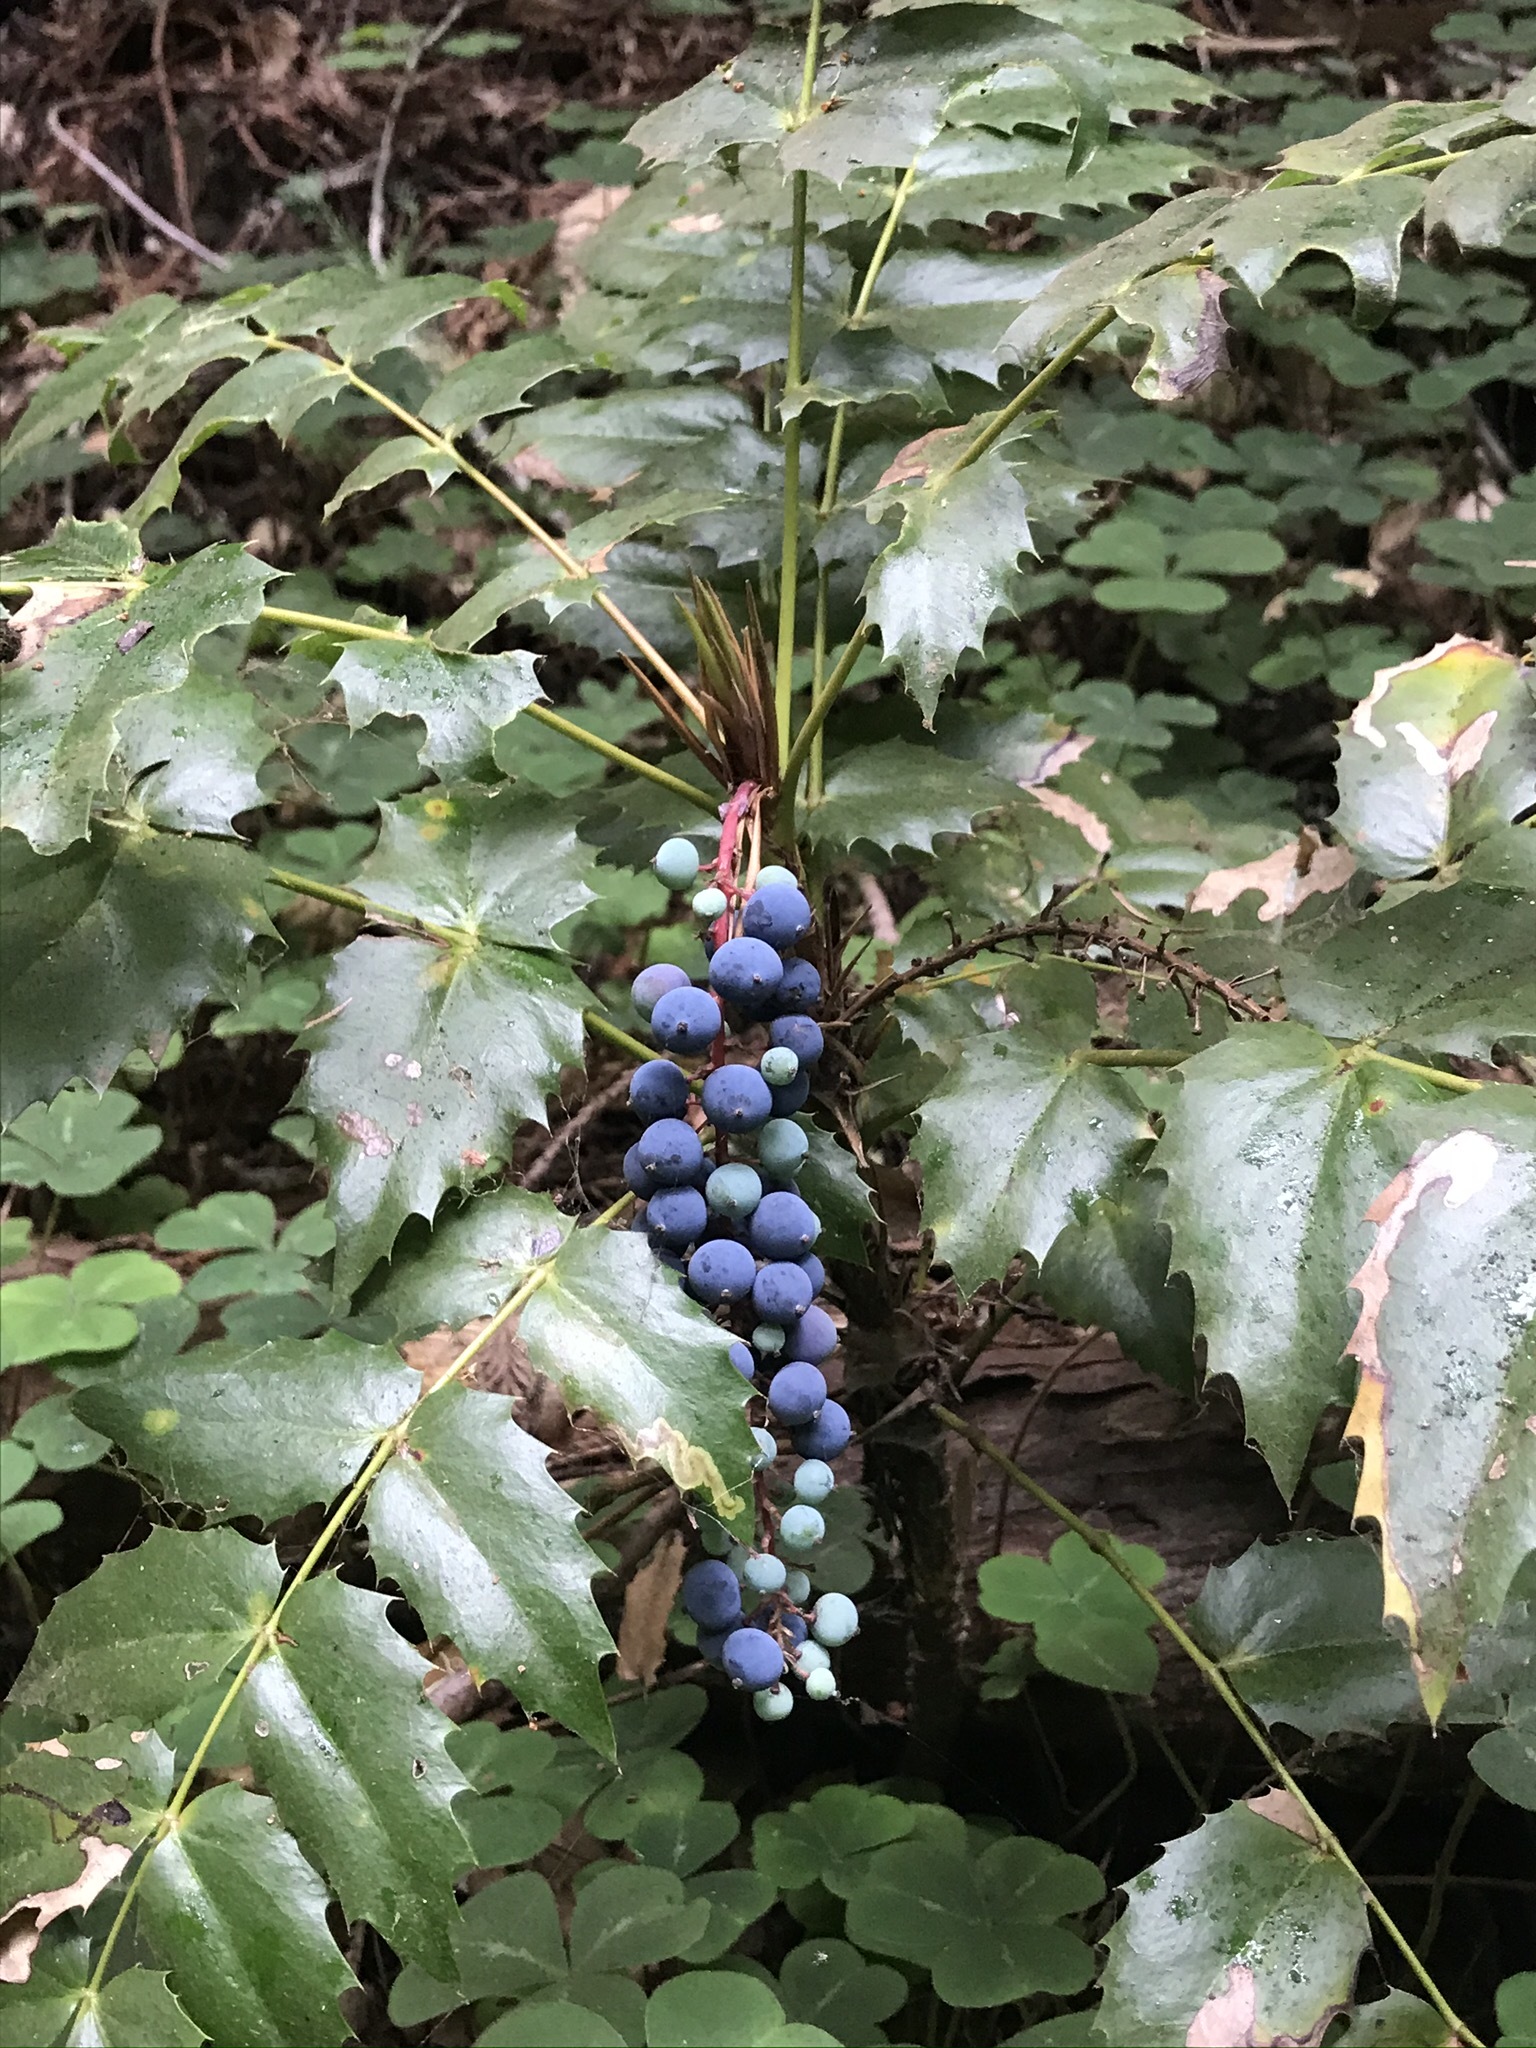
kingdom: Plantae
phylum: Tracheophyta
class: Magnoliopsida
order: Ranunculales
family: Berberidaceae
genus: Mahonia
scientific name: Mahonia nervosa
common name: Cascade oregon-grape
